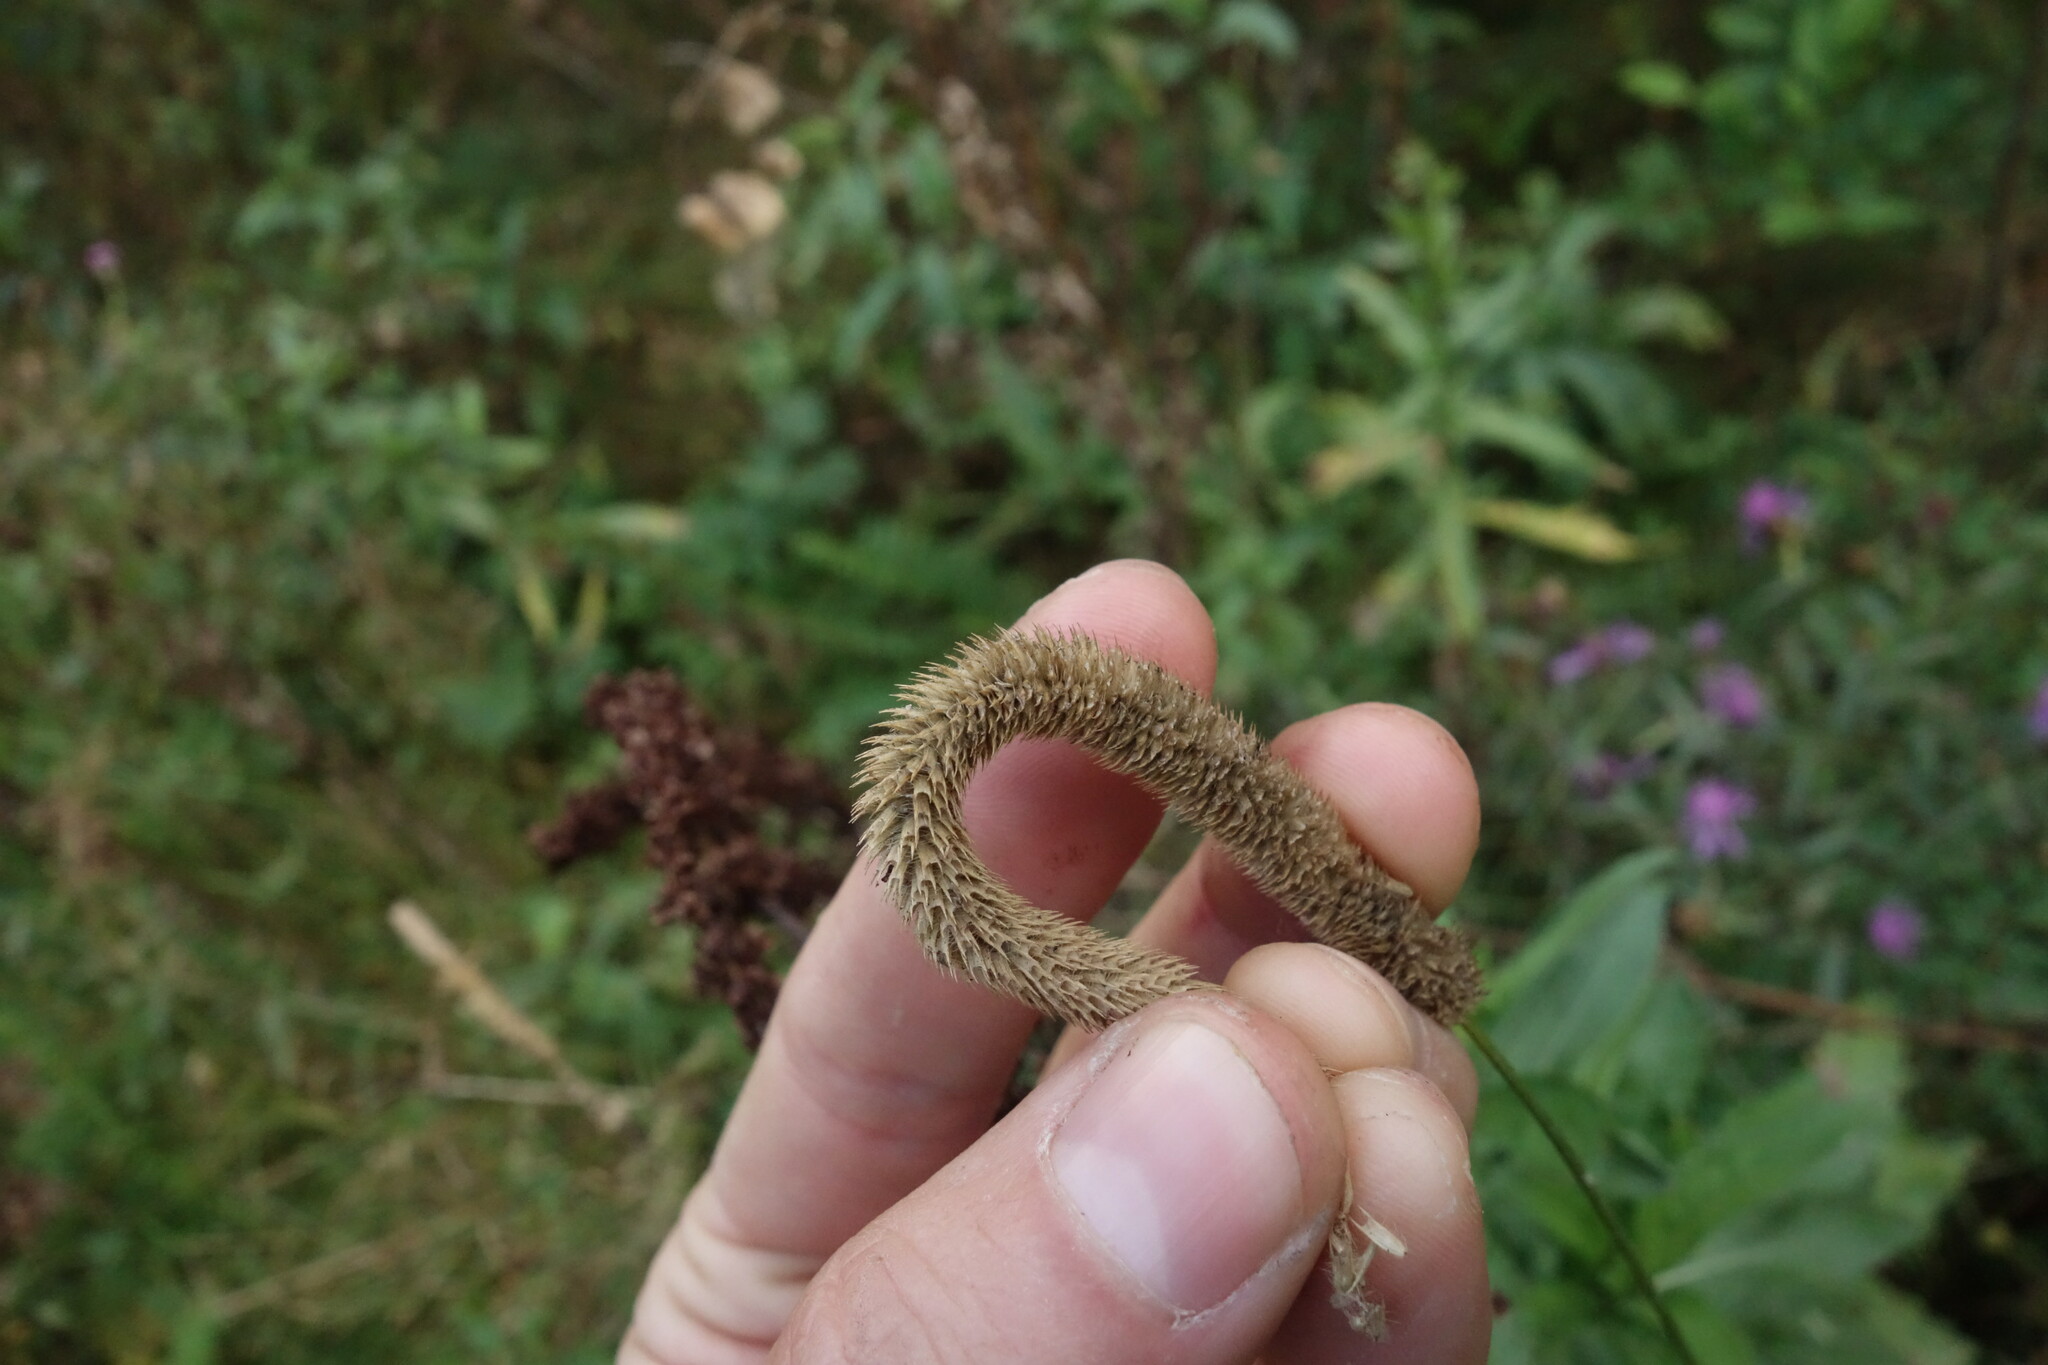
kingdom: Plantae
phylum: Tracheophyta
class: Liliopsida
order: Poales
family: Poaceae
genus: Phleum
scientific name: Phleum pratense
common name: Timothy grass
